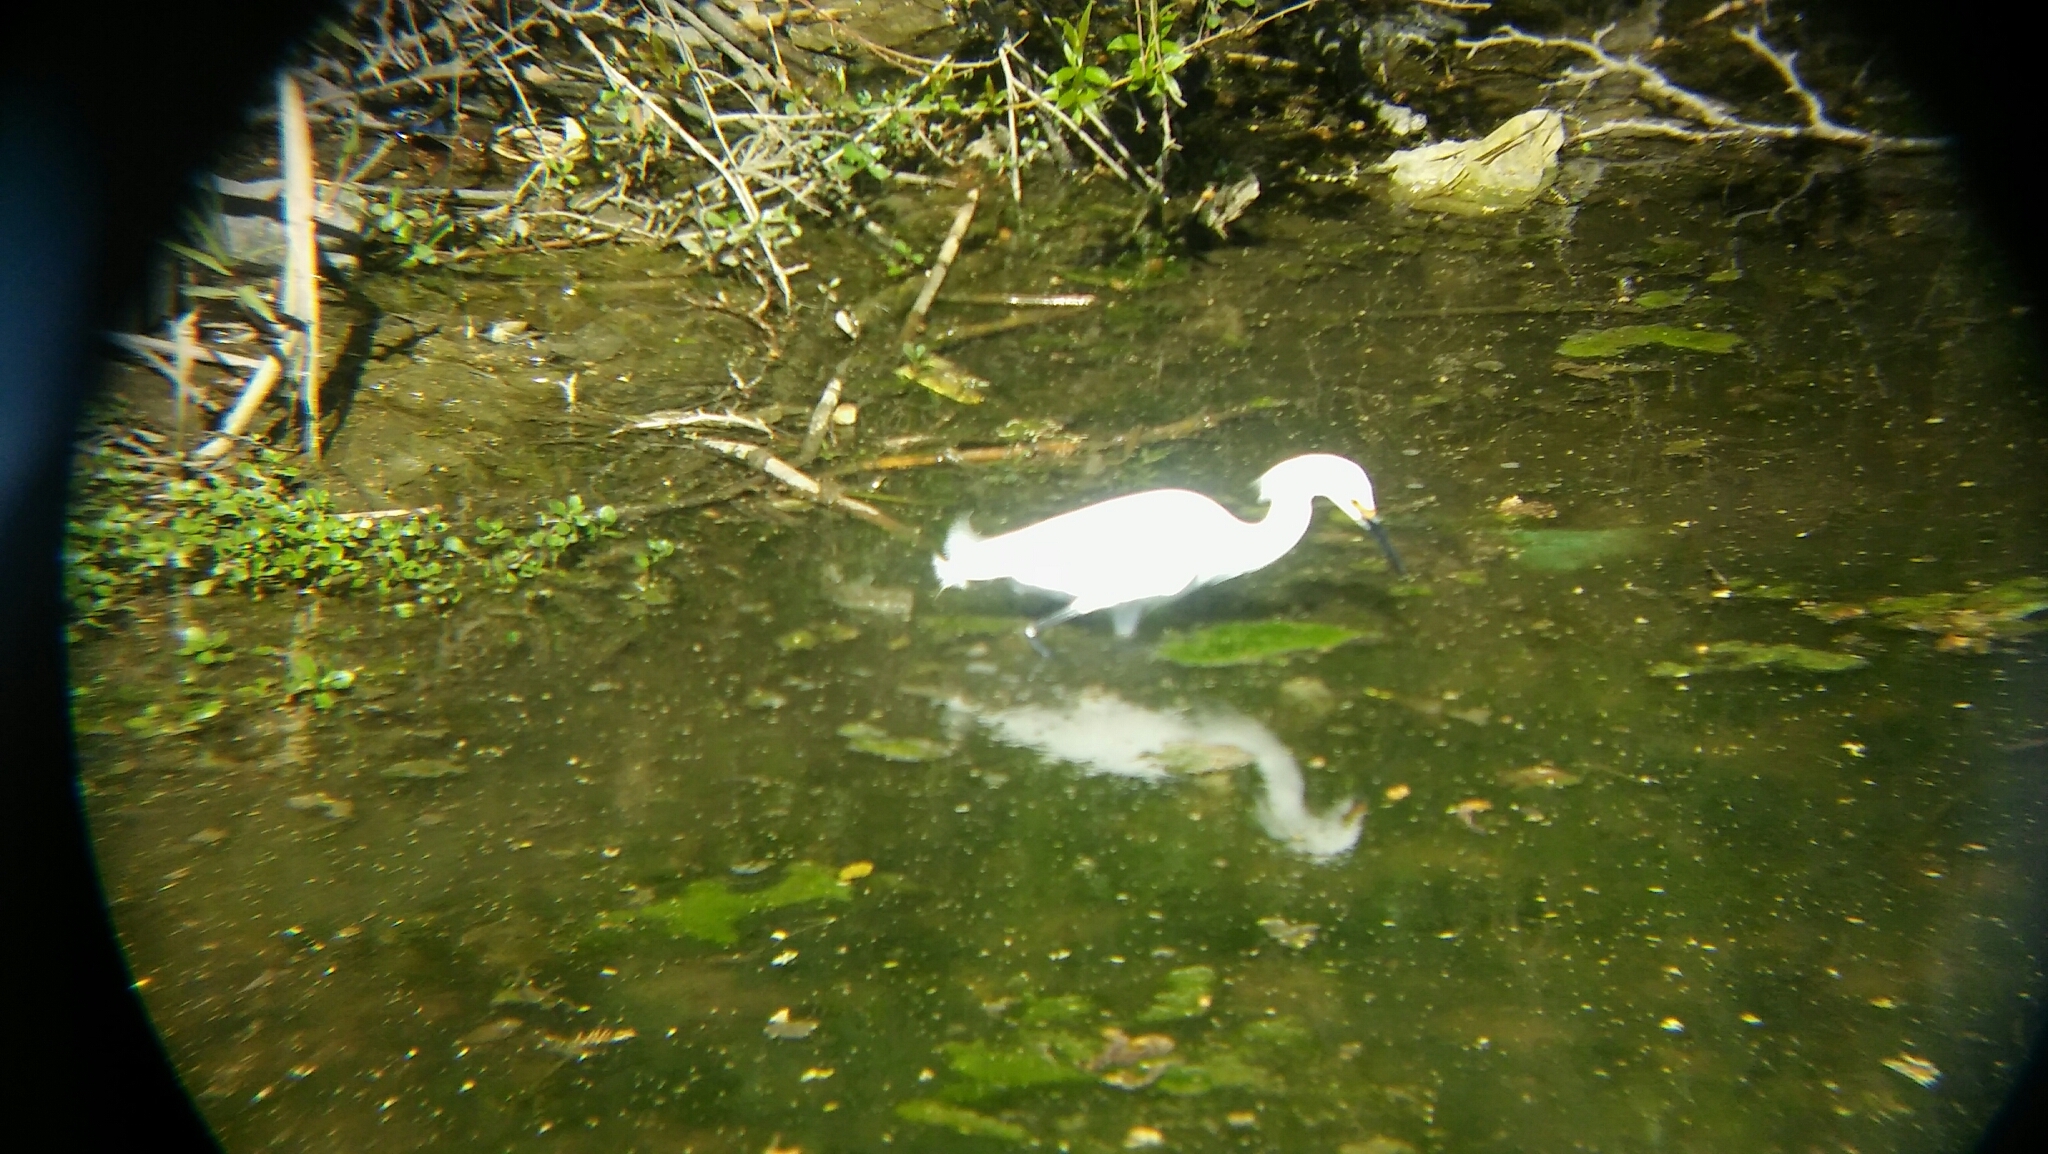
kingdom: Animalia
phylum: Chordata
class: Aves
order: Pelecaniformes
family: Ardeidae
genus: Egretta
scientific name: Egretta thula
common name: Snowy egret
